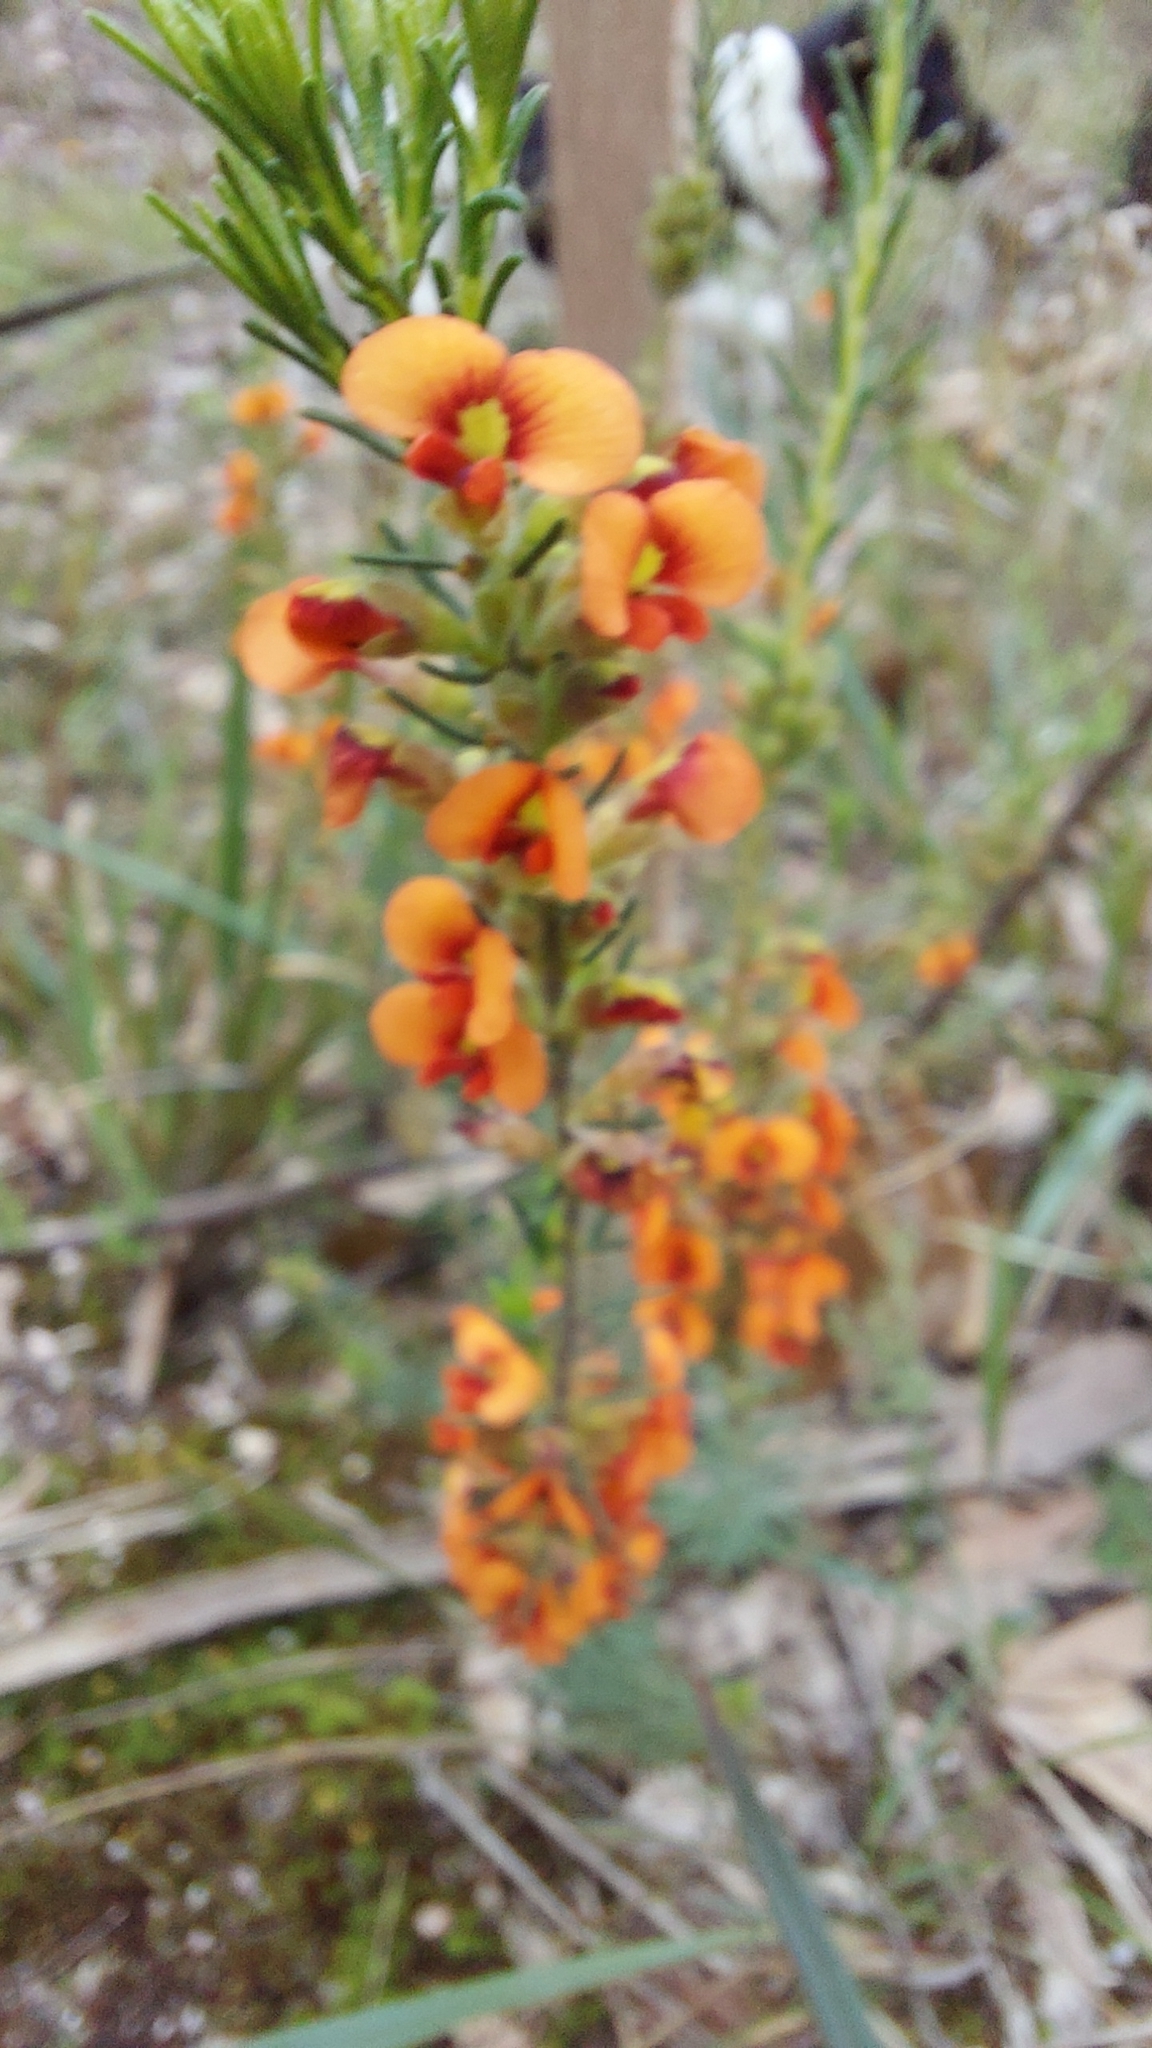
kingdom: Plantae
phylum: Tracheophyta
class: Magnoliopsida
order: Fabales
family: Fabaceae
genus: Dillwynia
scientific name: Dillwynia sericea
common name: Showy parrot-pea
